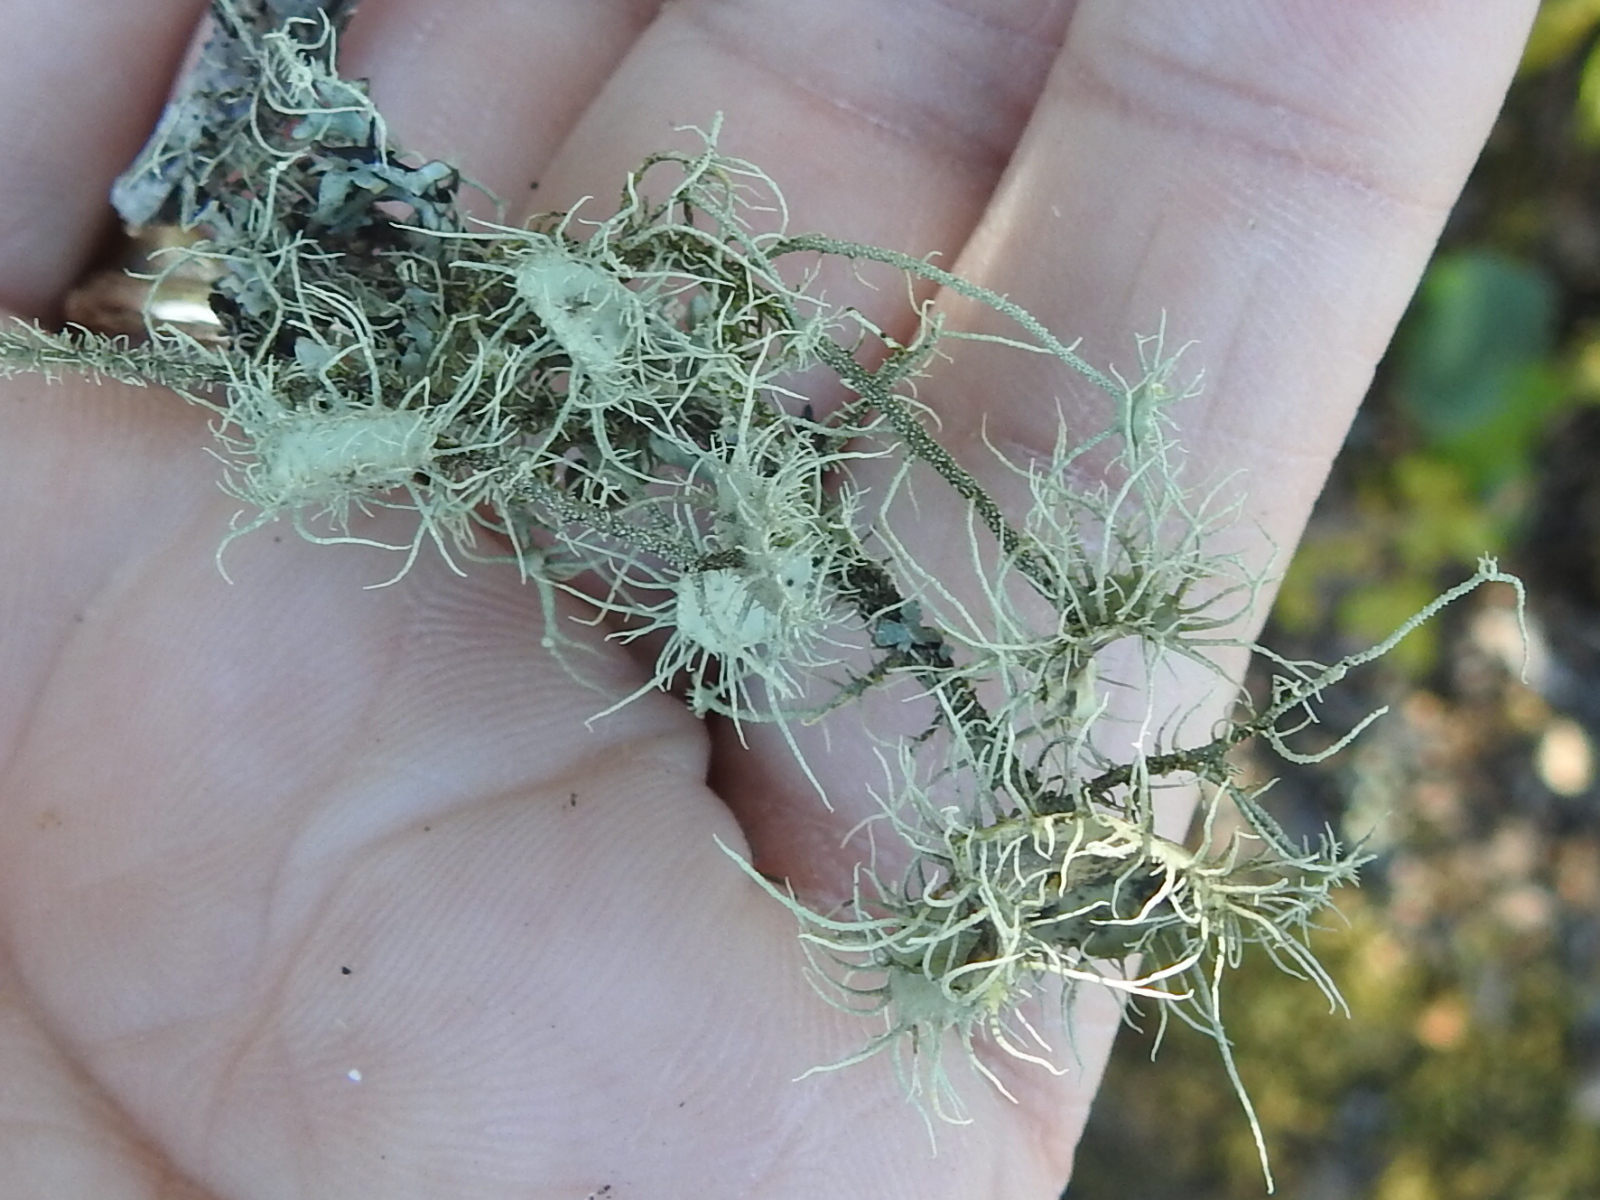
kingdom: Fungi
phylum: Ascomycota
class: Lecanoromycetes
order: Lecanorales
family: Parmeliaceae
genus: Usnea
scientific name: Usnea intermedia
